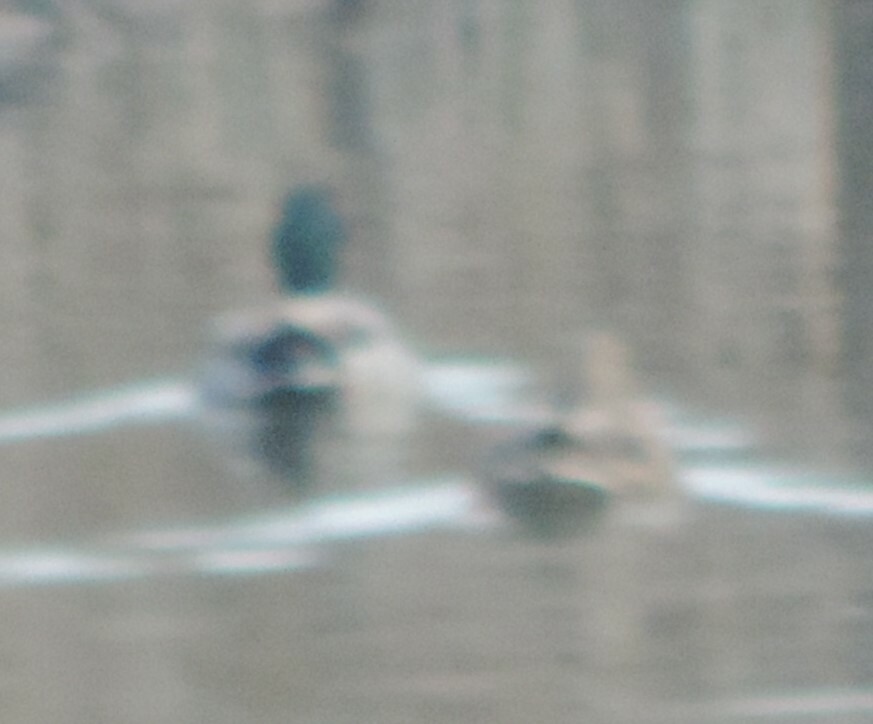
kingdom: Animalia
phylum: Chordata
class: Aves
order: Anseriformes
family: Anatidae
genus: Anas
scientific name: Anas platyrhynchos
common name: Mallard
